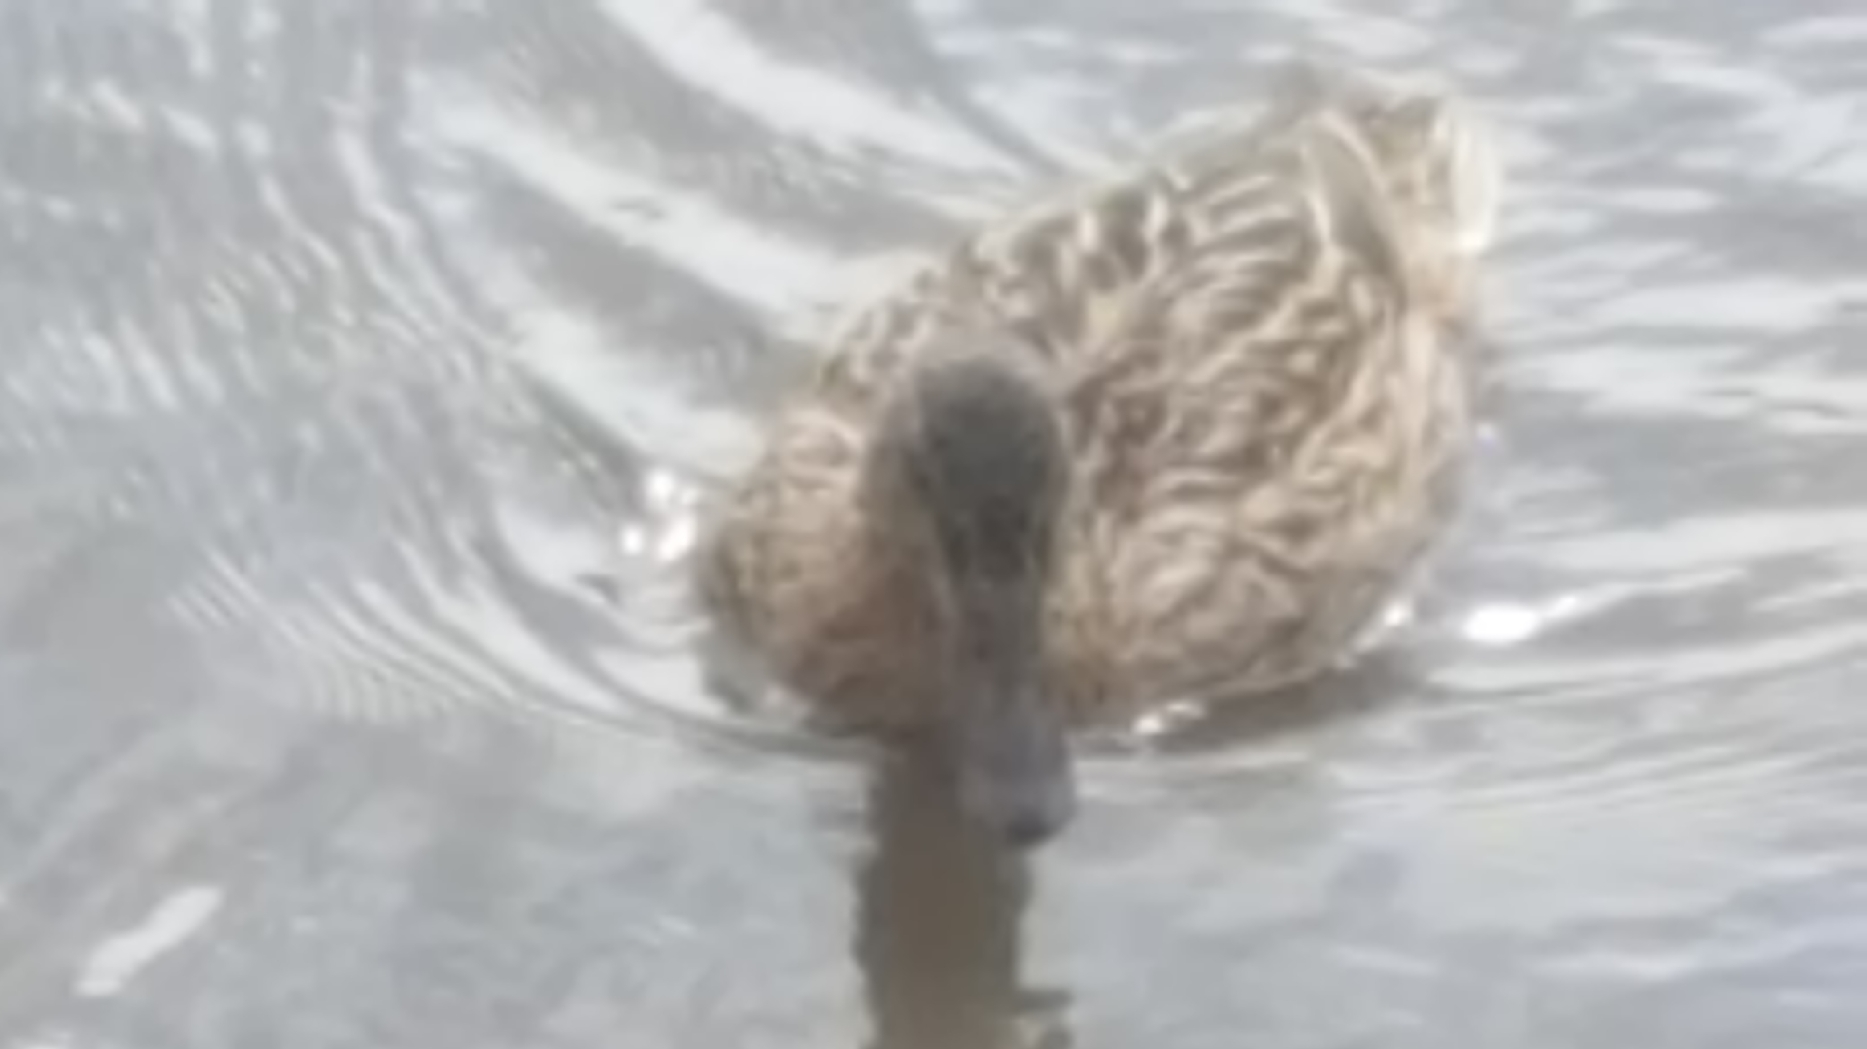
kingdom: Animalia
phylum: Chordata
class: Aves
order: Anseriformes
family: Anatidae
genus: Anas
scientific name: Anas platyrhynchos
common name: Mallard
